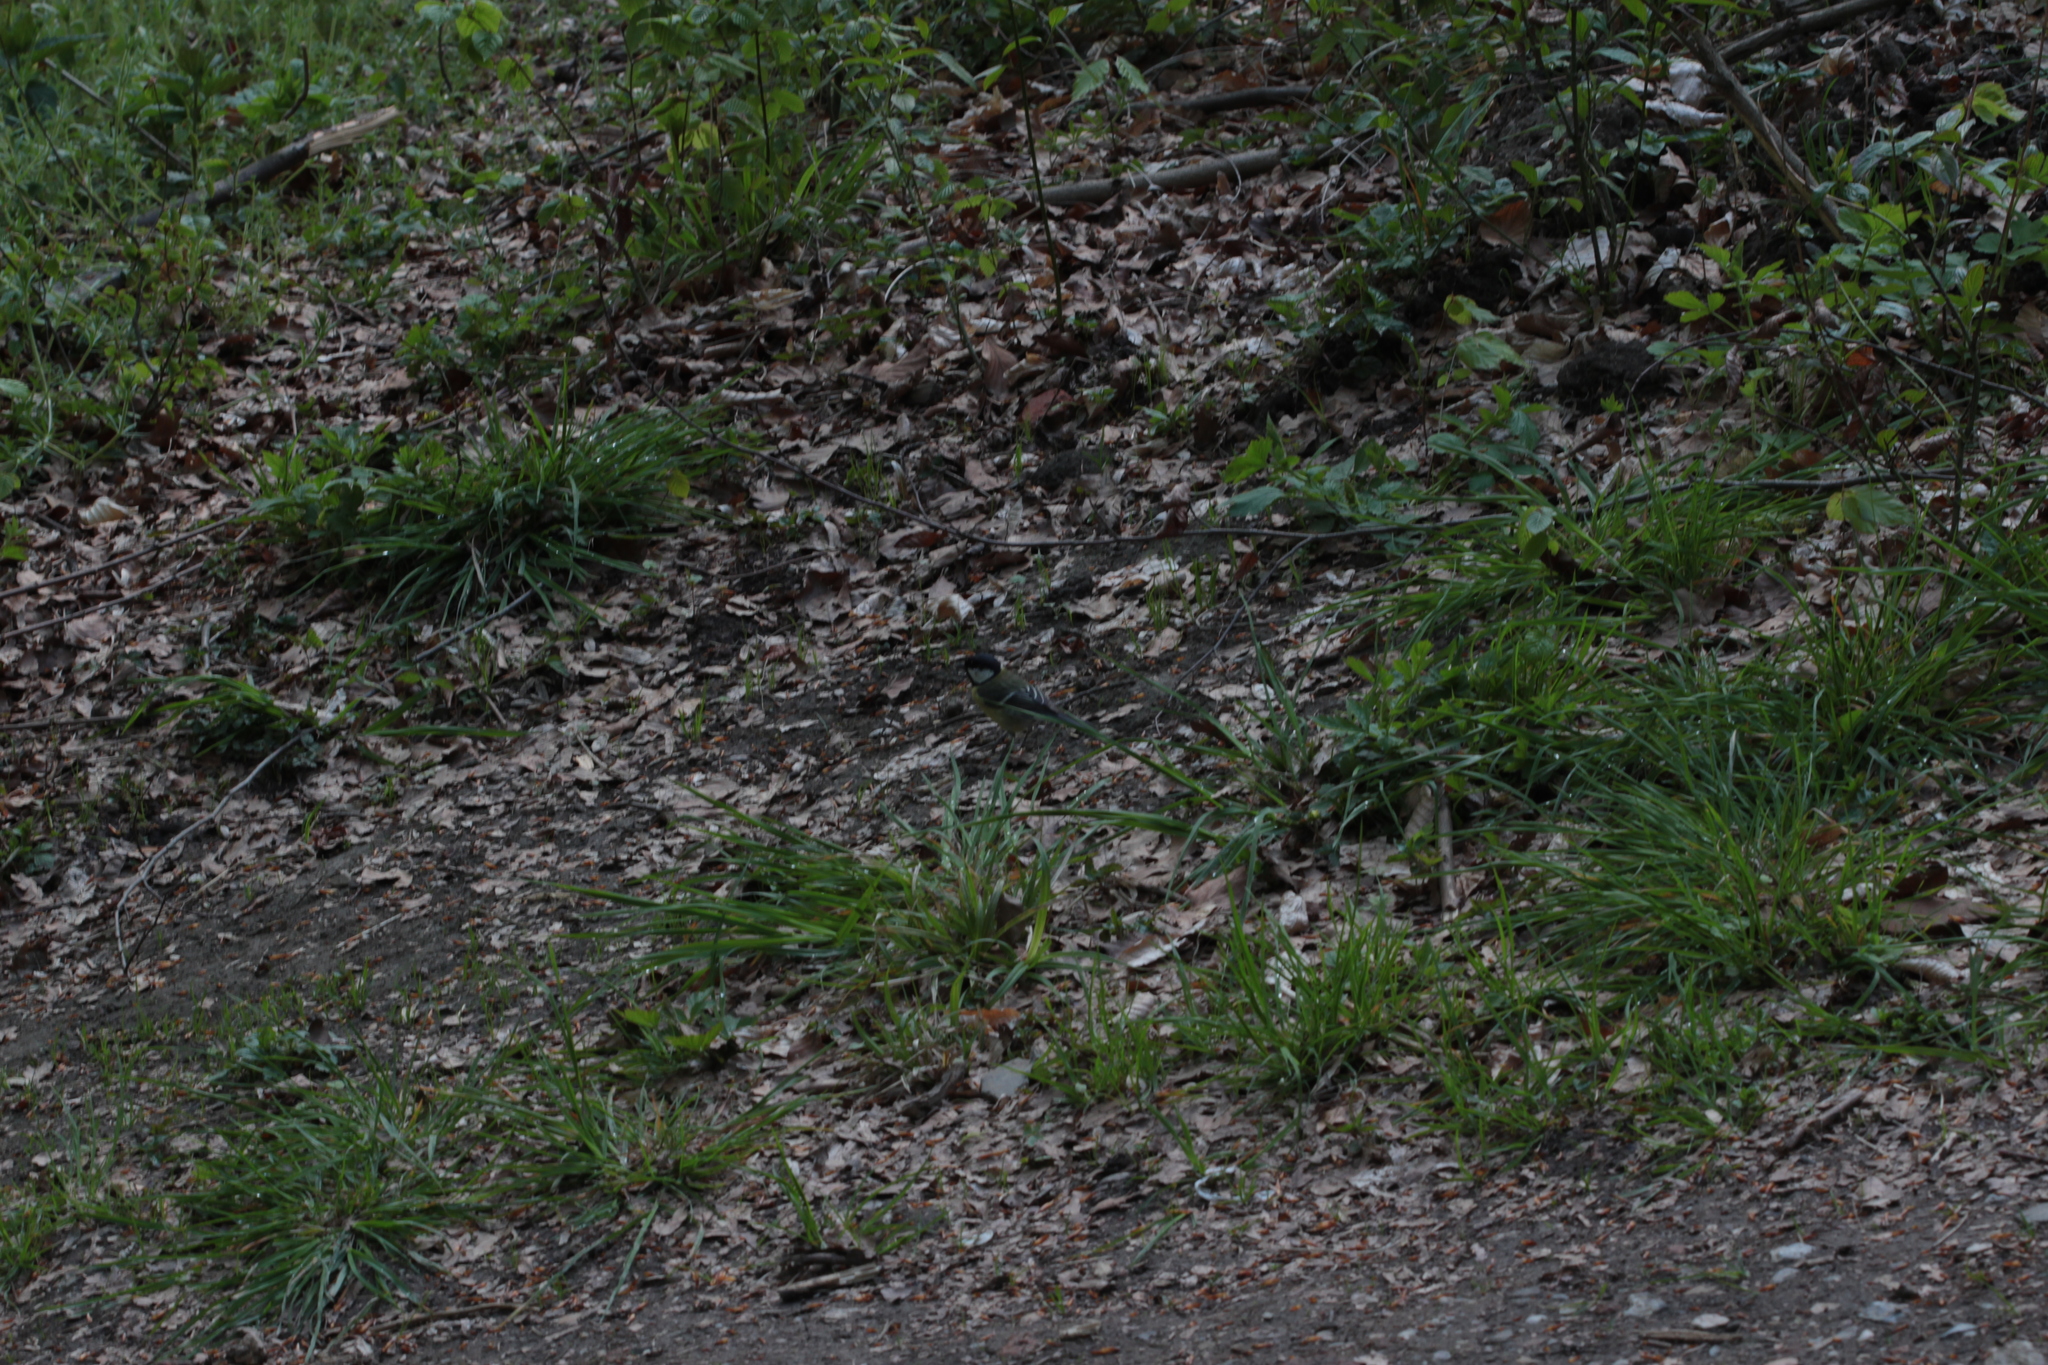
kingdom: Animalia
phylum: Chordata
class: Aves
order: Passeriformes
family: Paridae
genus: Parus
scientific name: Parus major
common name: Great tit
